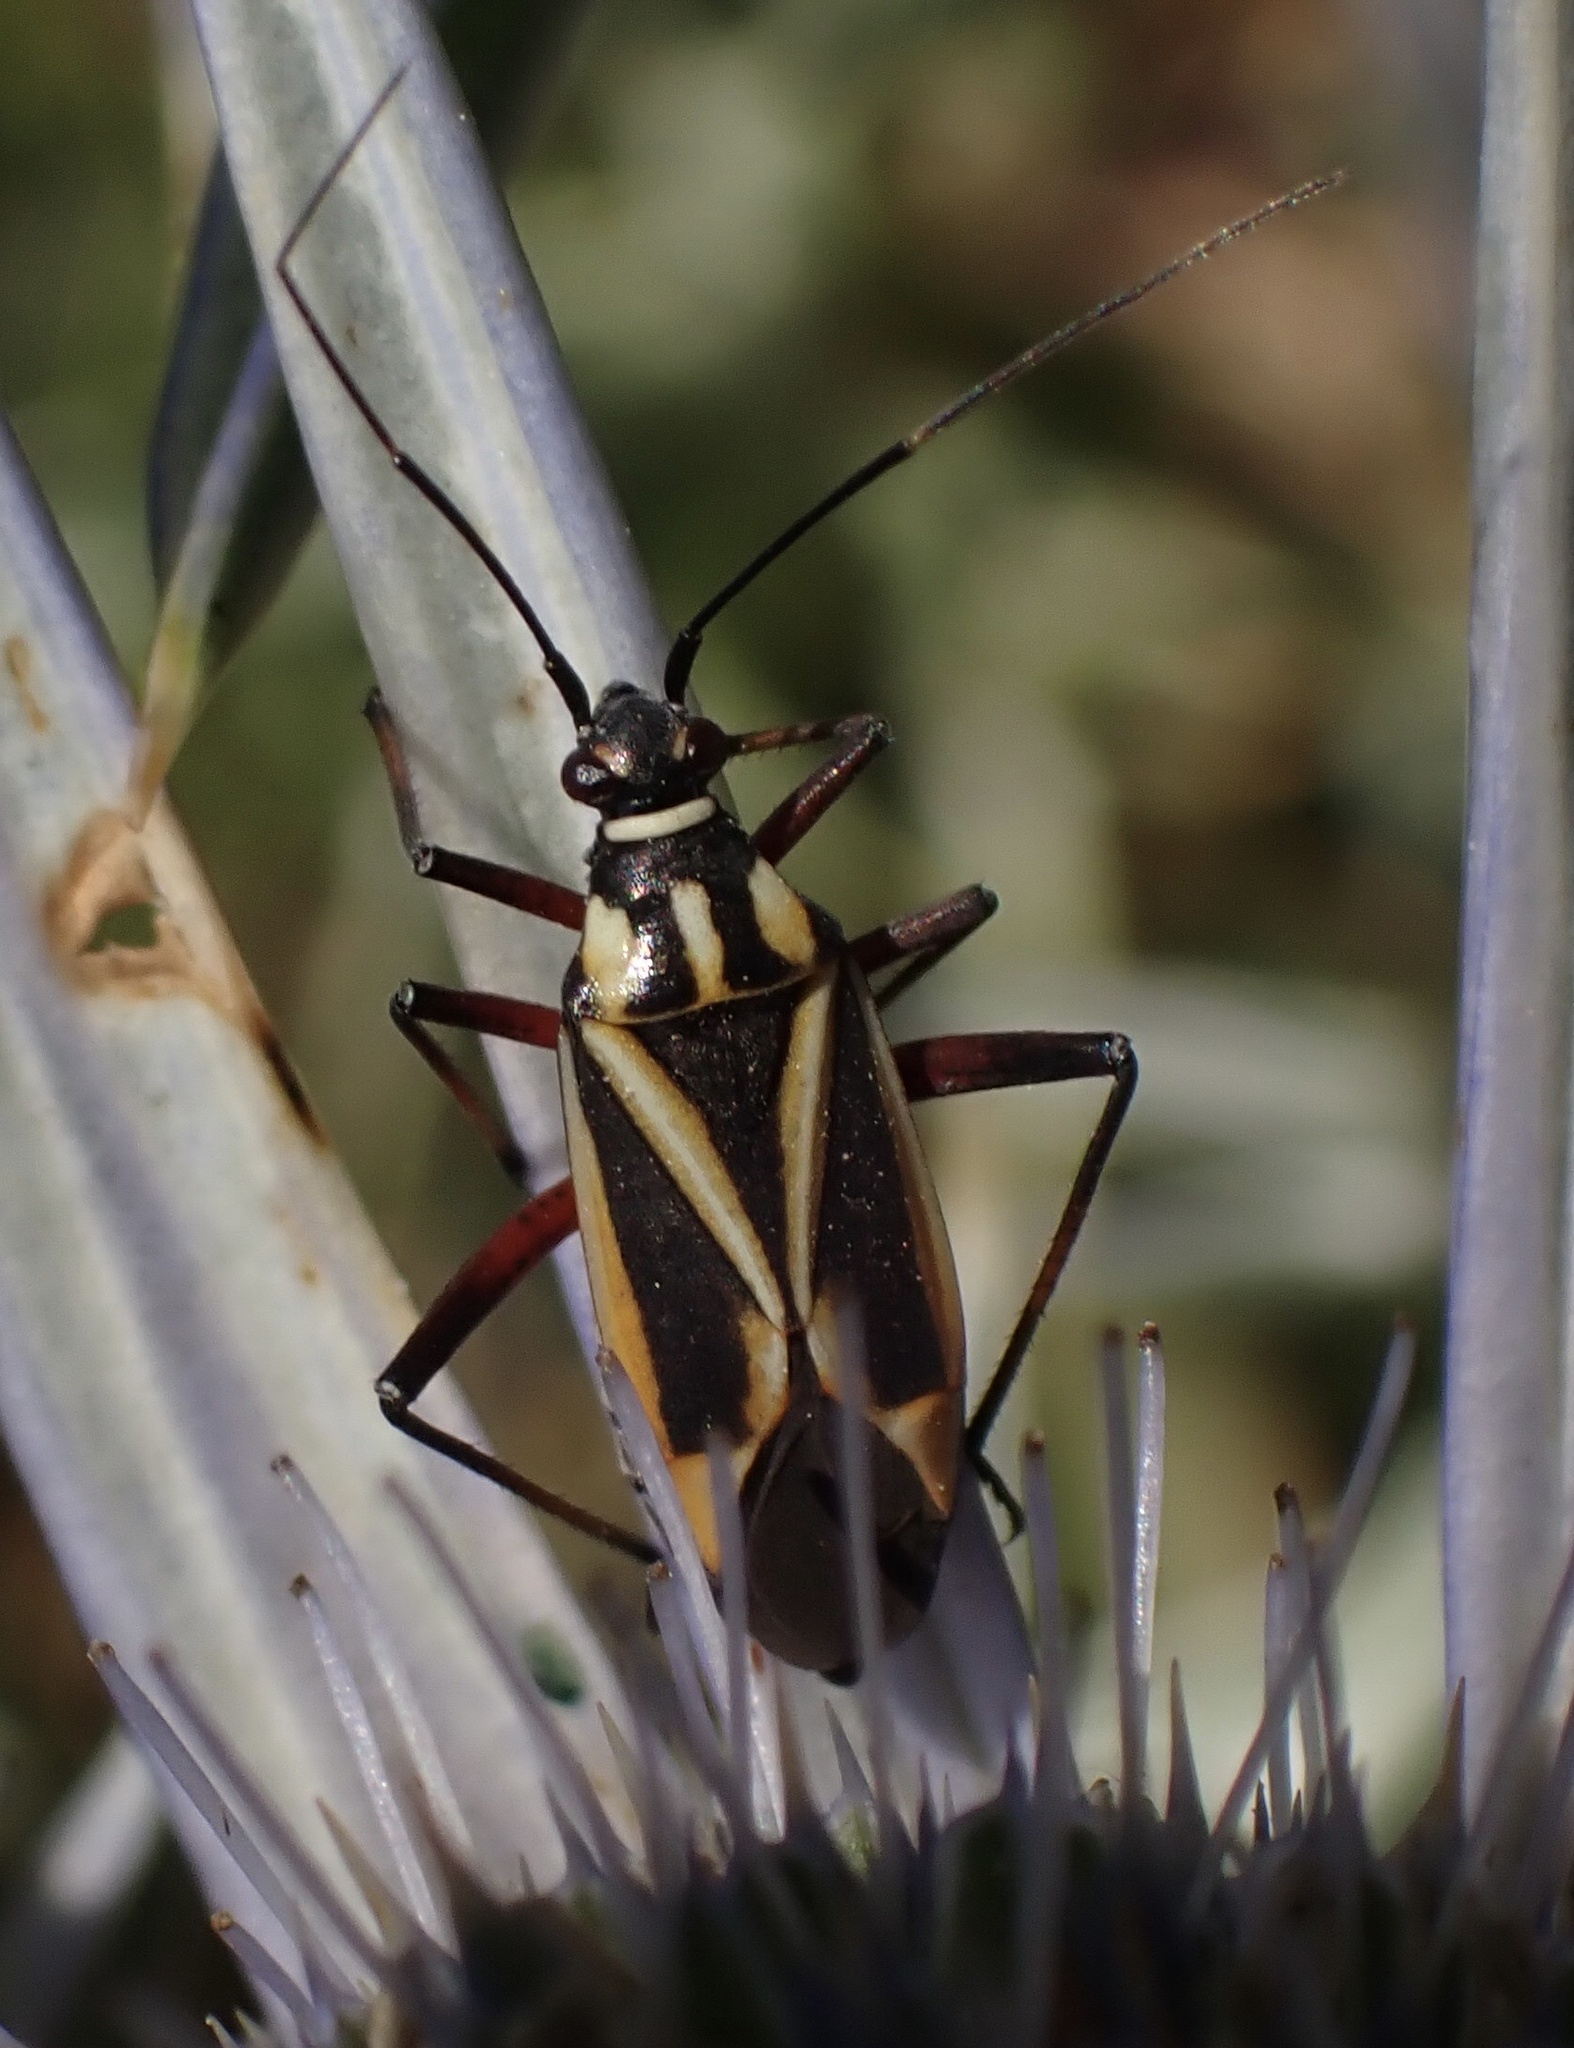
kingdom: Animalia
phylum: Arthropoda
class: Insecta
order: Hemiptera
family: Miridae
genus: Hadrodemus
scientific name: Hadrodemus m-flavum
